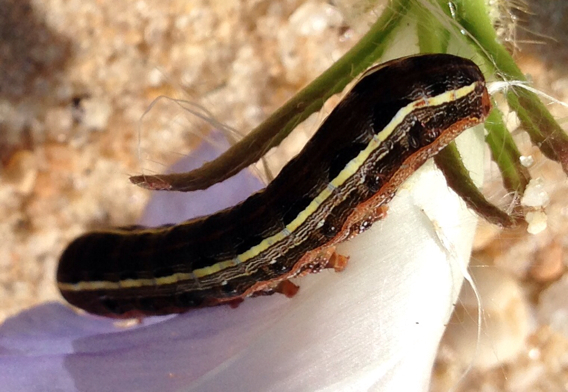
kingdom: Animalia
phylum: Arthropoda
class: Insecta
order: Lepidoptera
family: Noctuidae
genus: Spodoptera
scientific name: Spodoptera ornithogalli
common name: Yellow-striped armyworm
